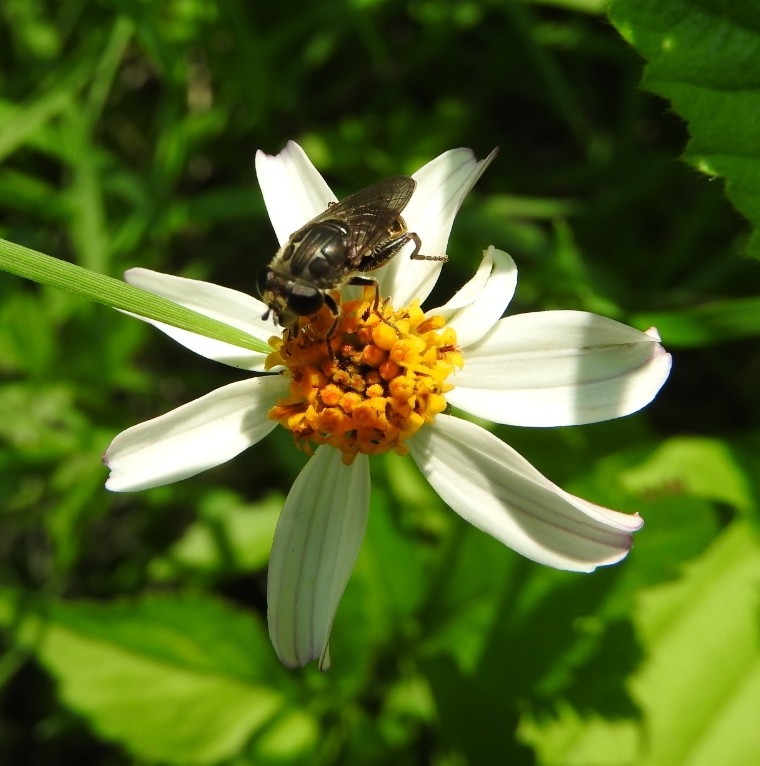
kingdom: Animalia
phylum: Arthropoda
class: Insecta
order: Diptera
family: Syrphidae
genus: Asemosyrphus
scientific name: Asemosyrphus
